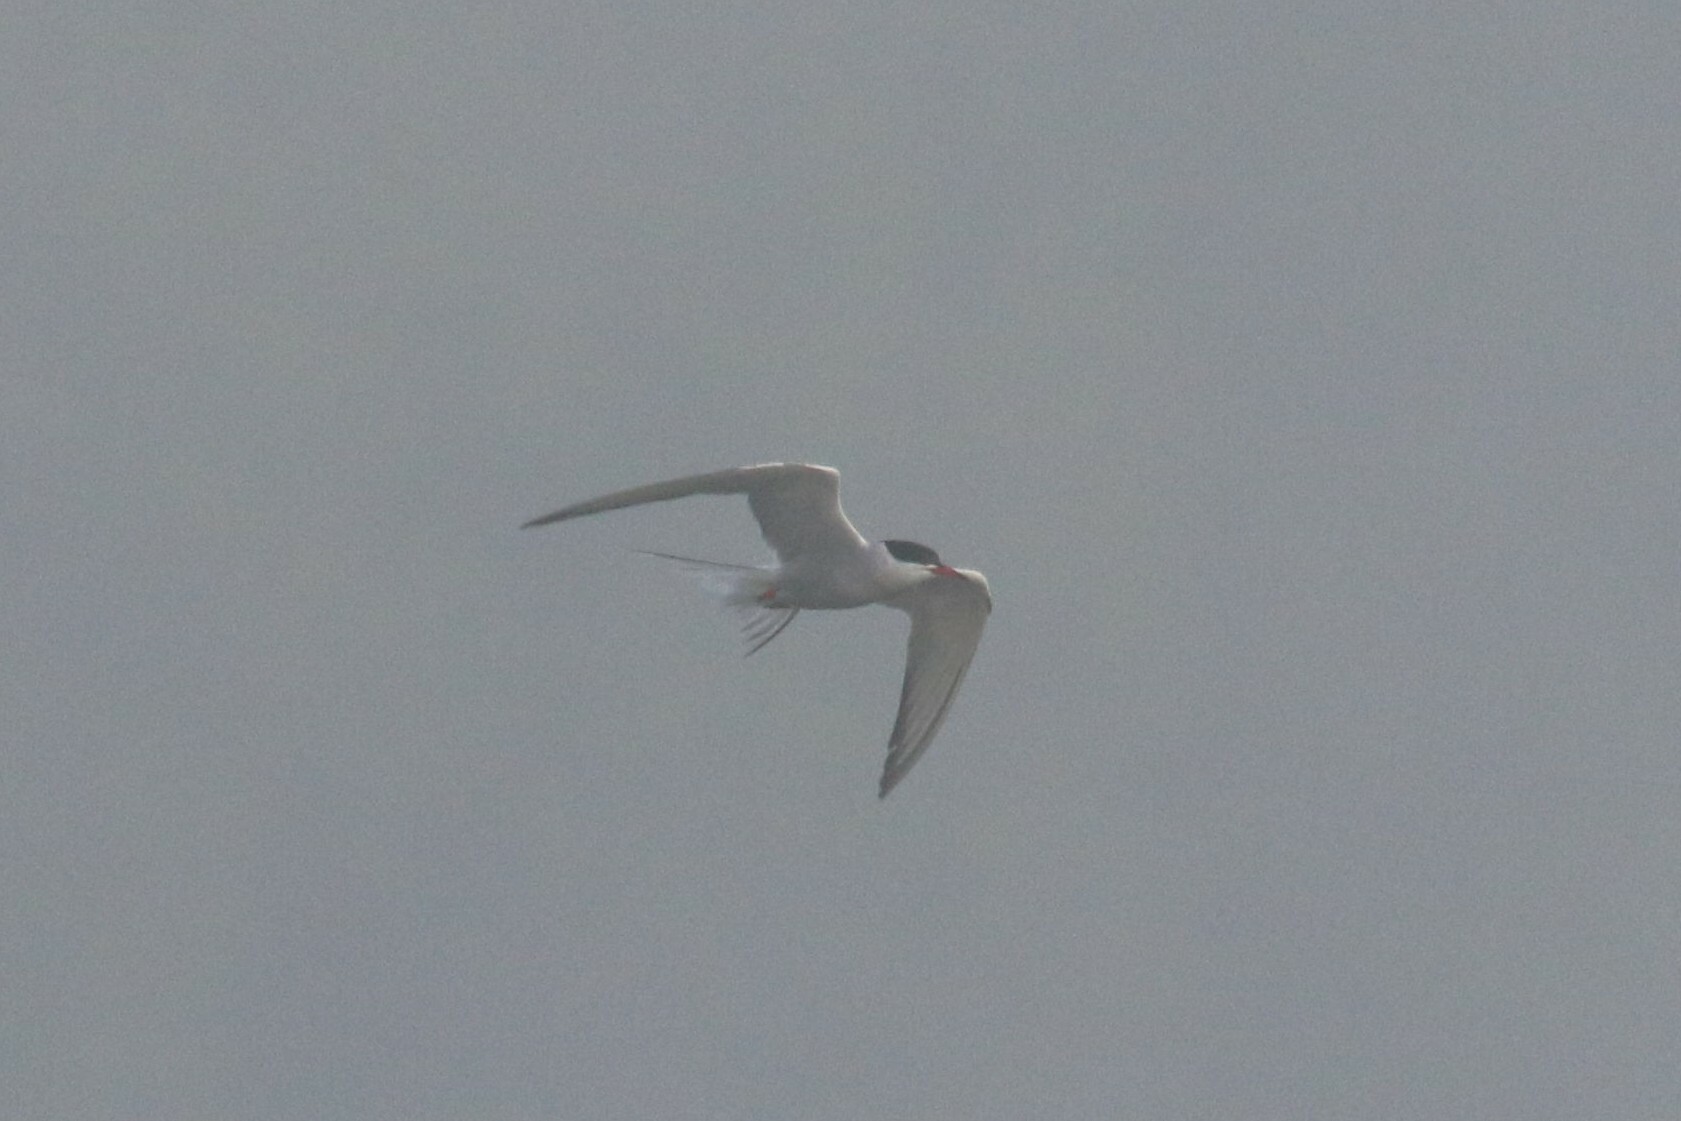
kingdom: Animalia
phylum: Chordata
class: Aves
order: Charadriiformes
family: Laridae
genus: Sterna
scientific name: Sterna hirundo
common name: Common tern
